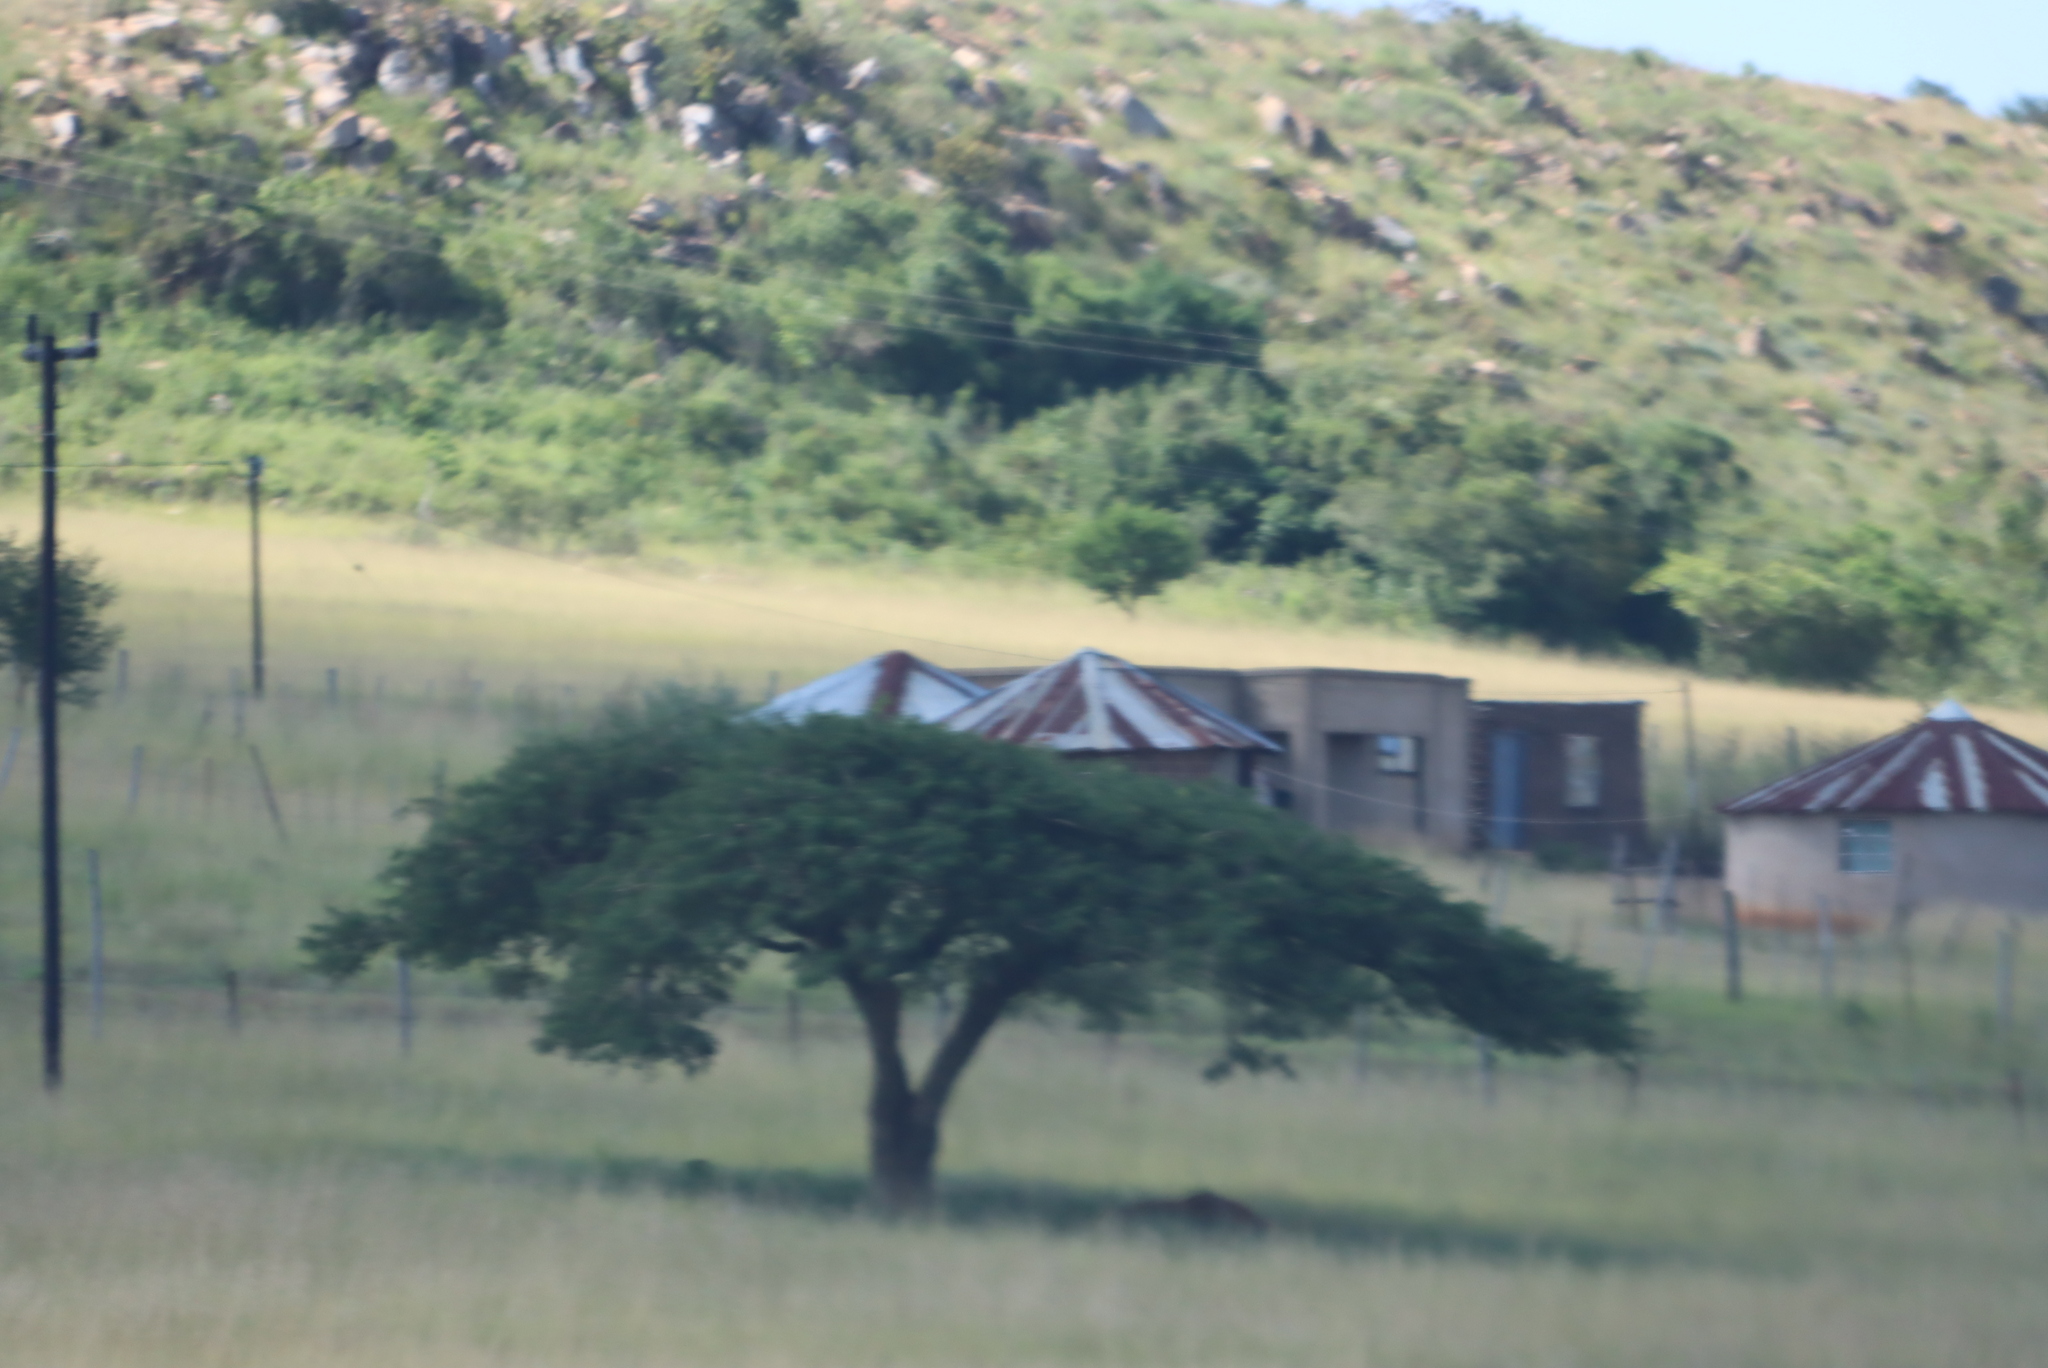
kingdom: Plantae
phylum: Tracheophyta
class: Magnoliopsida
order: Fabales
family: Fabaceae
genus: Vachellia
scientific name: Vachellia sieberiana
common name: Flat-topped thorn
